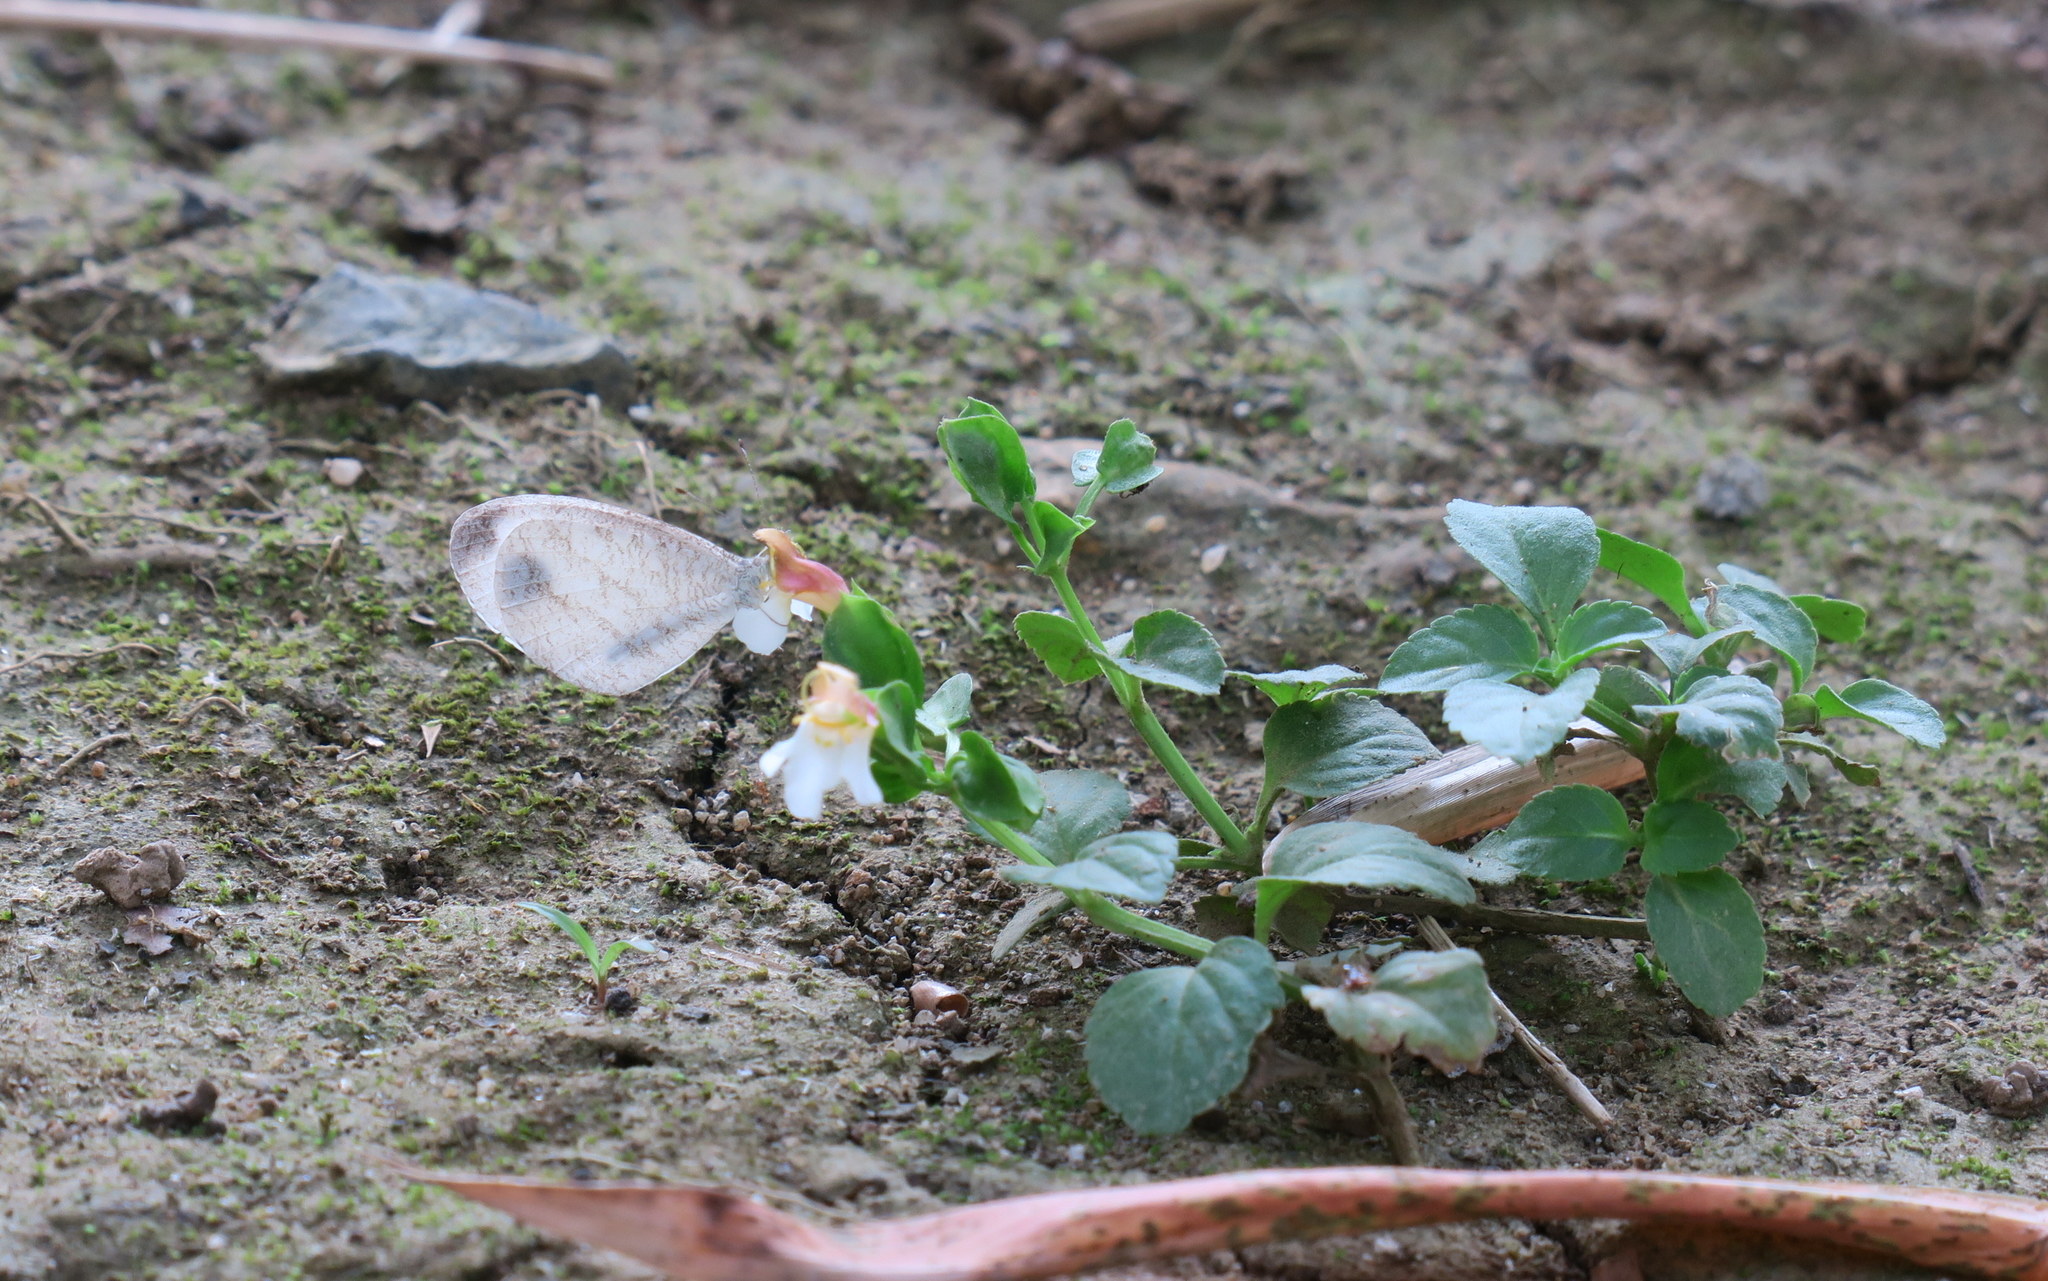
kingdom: Animalia
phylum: Arthropoda
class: Insecta
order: Lepidoptera
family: Pieridae
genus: Leptosia
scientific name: Leptosia nina
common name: Psyche
